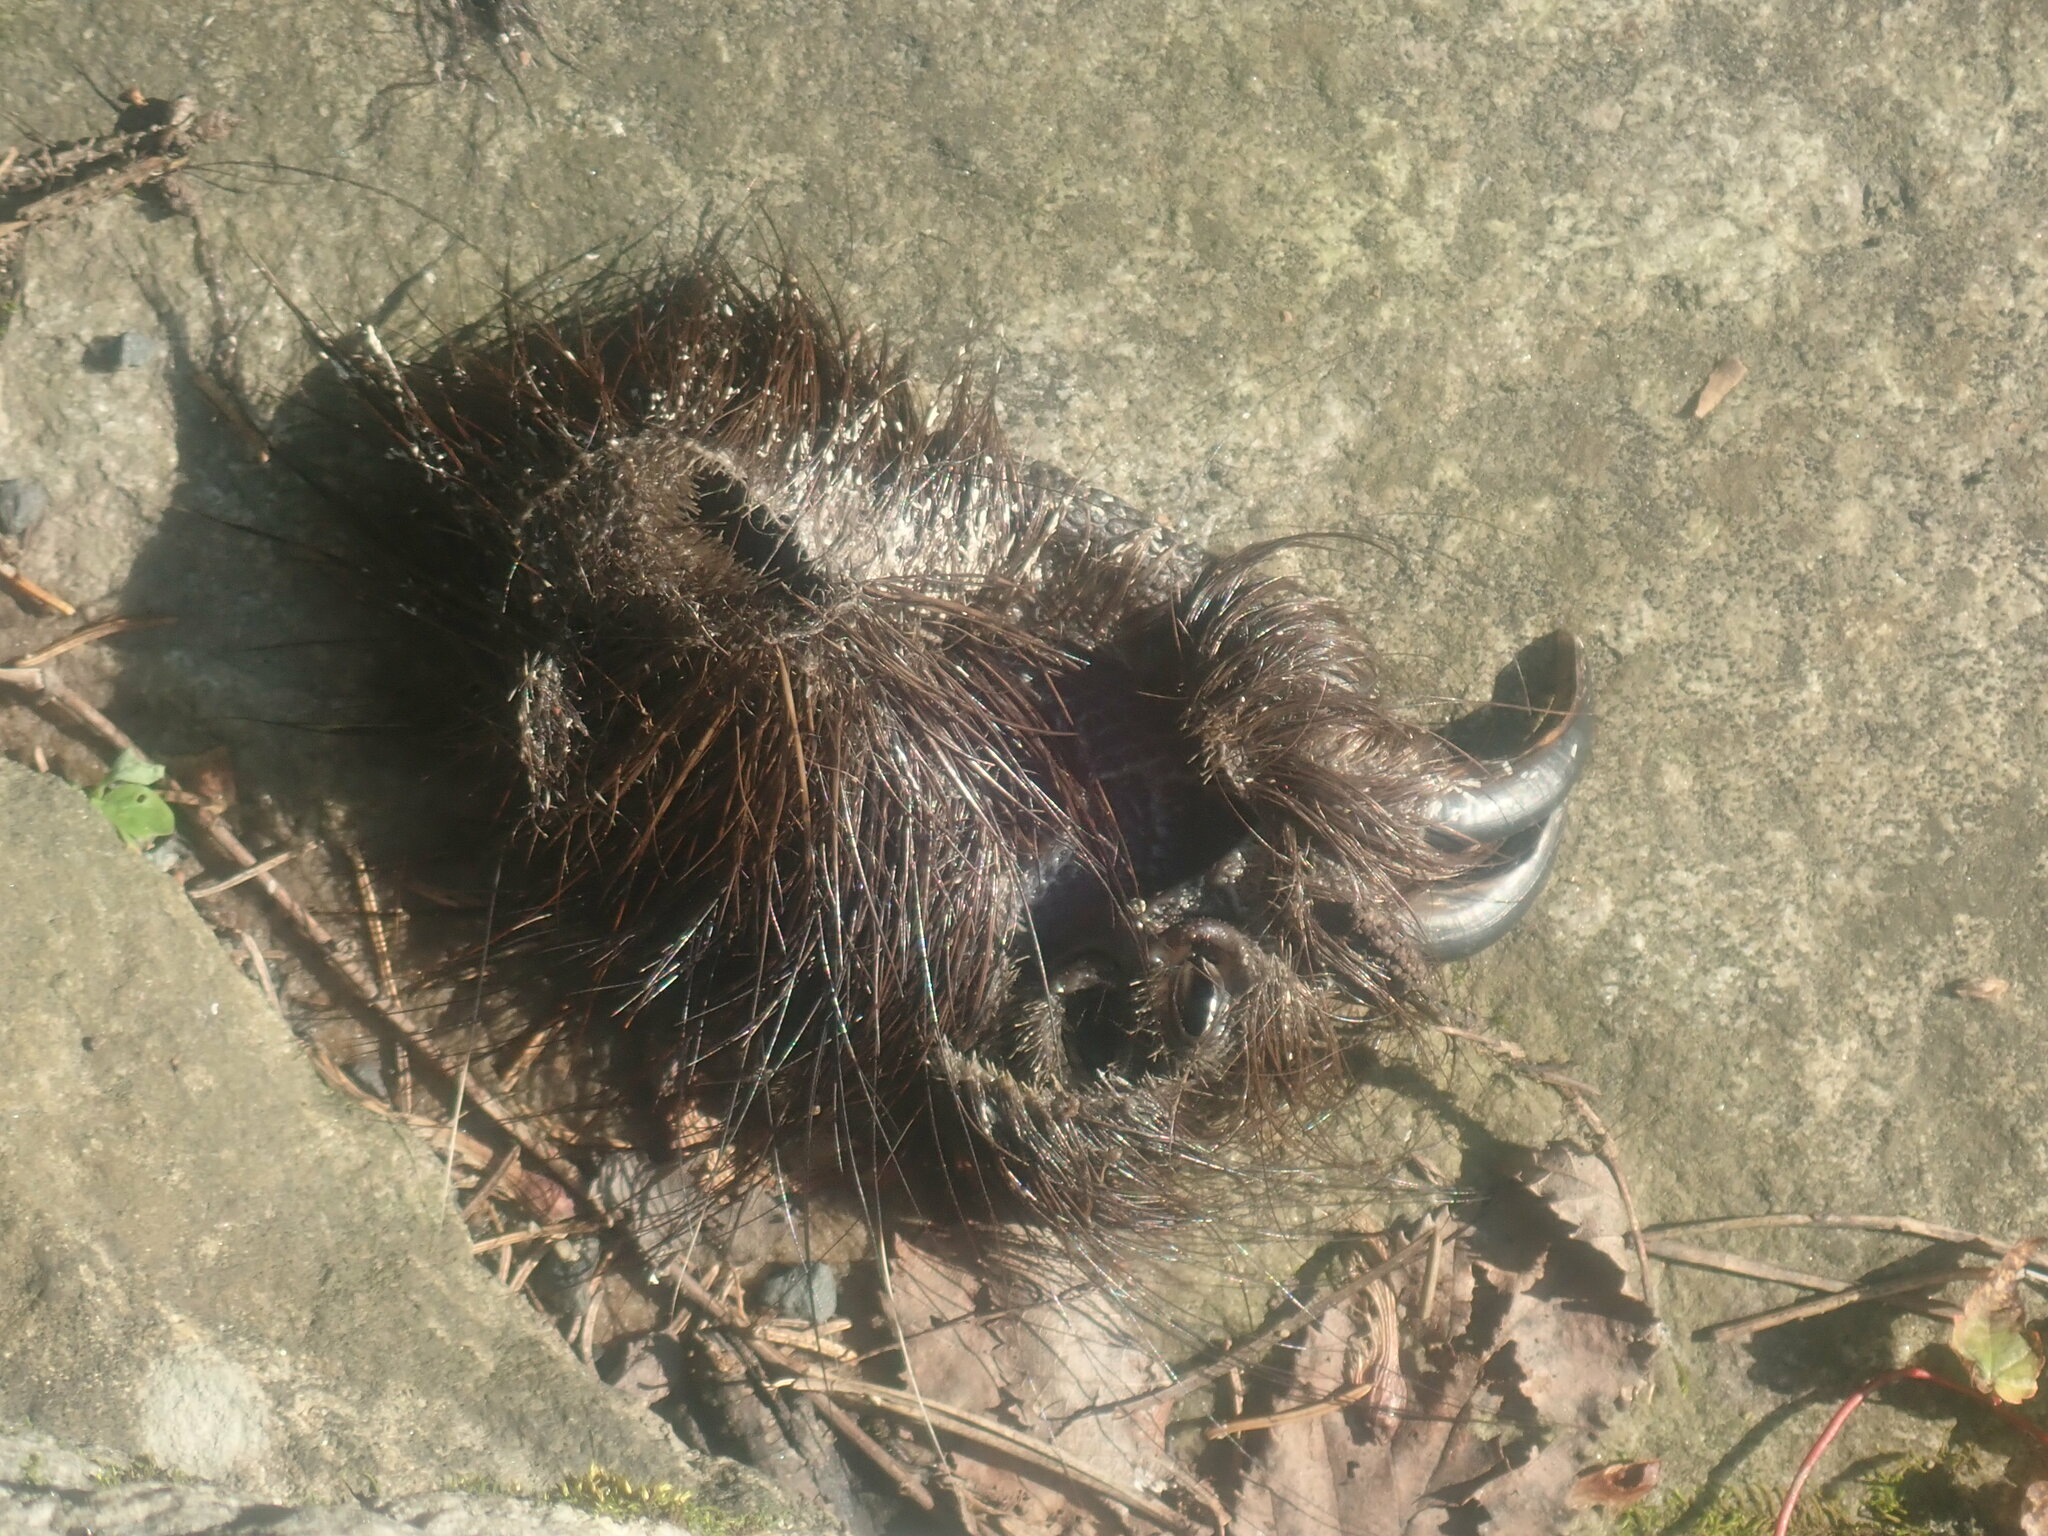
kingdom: Animalia
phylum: Chordata
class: Mammalia
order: Rodentia
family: Erethizontidae
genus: Erethizon
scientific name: Erethizon dorsatus
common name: North american porcupine
